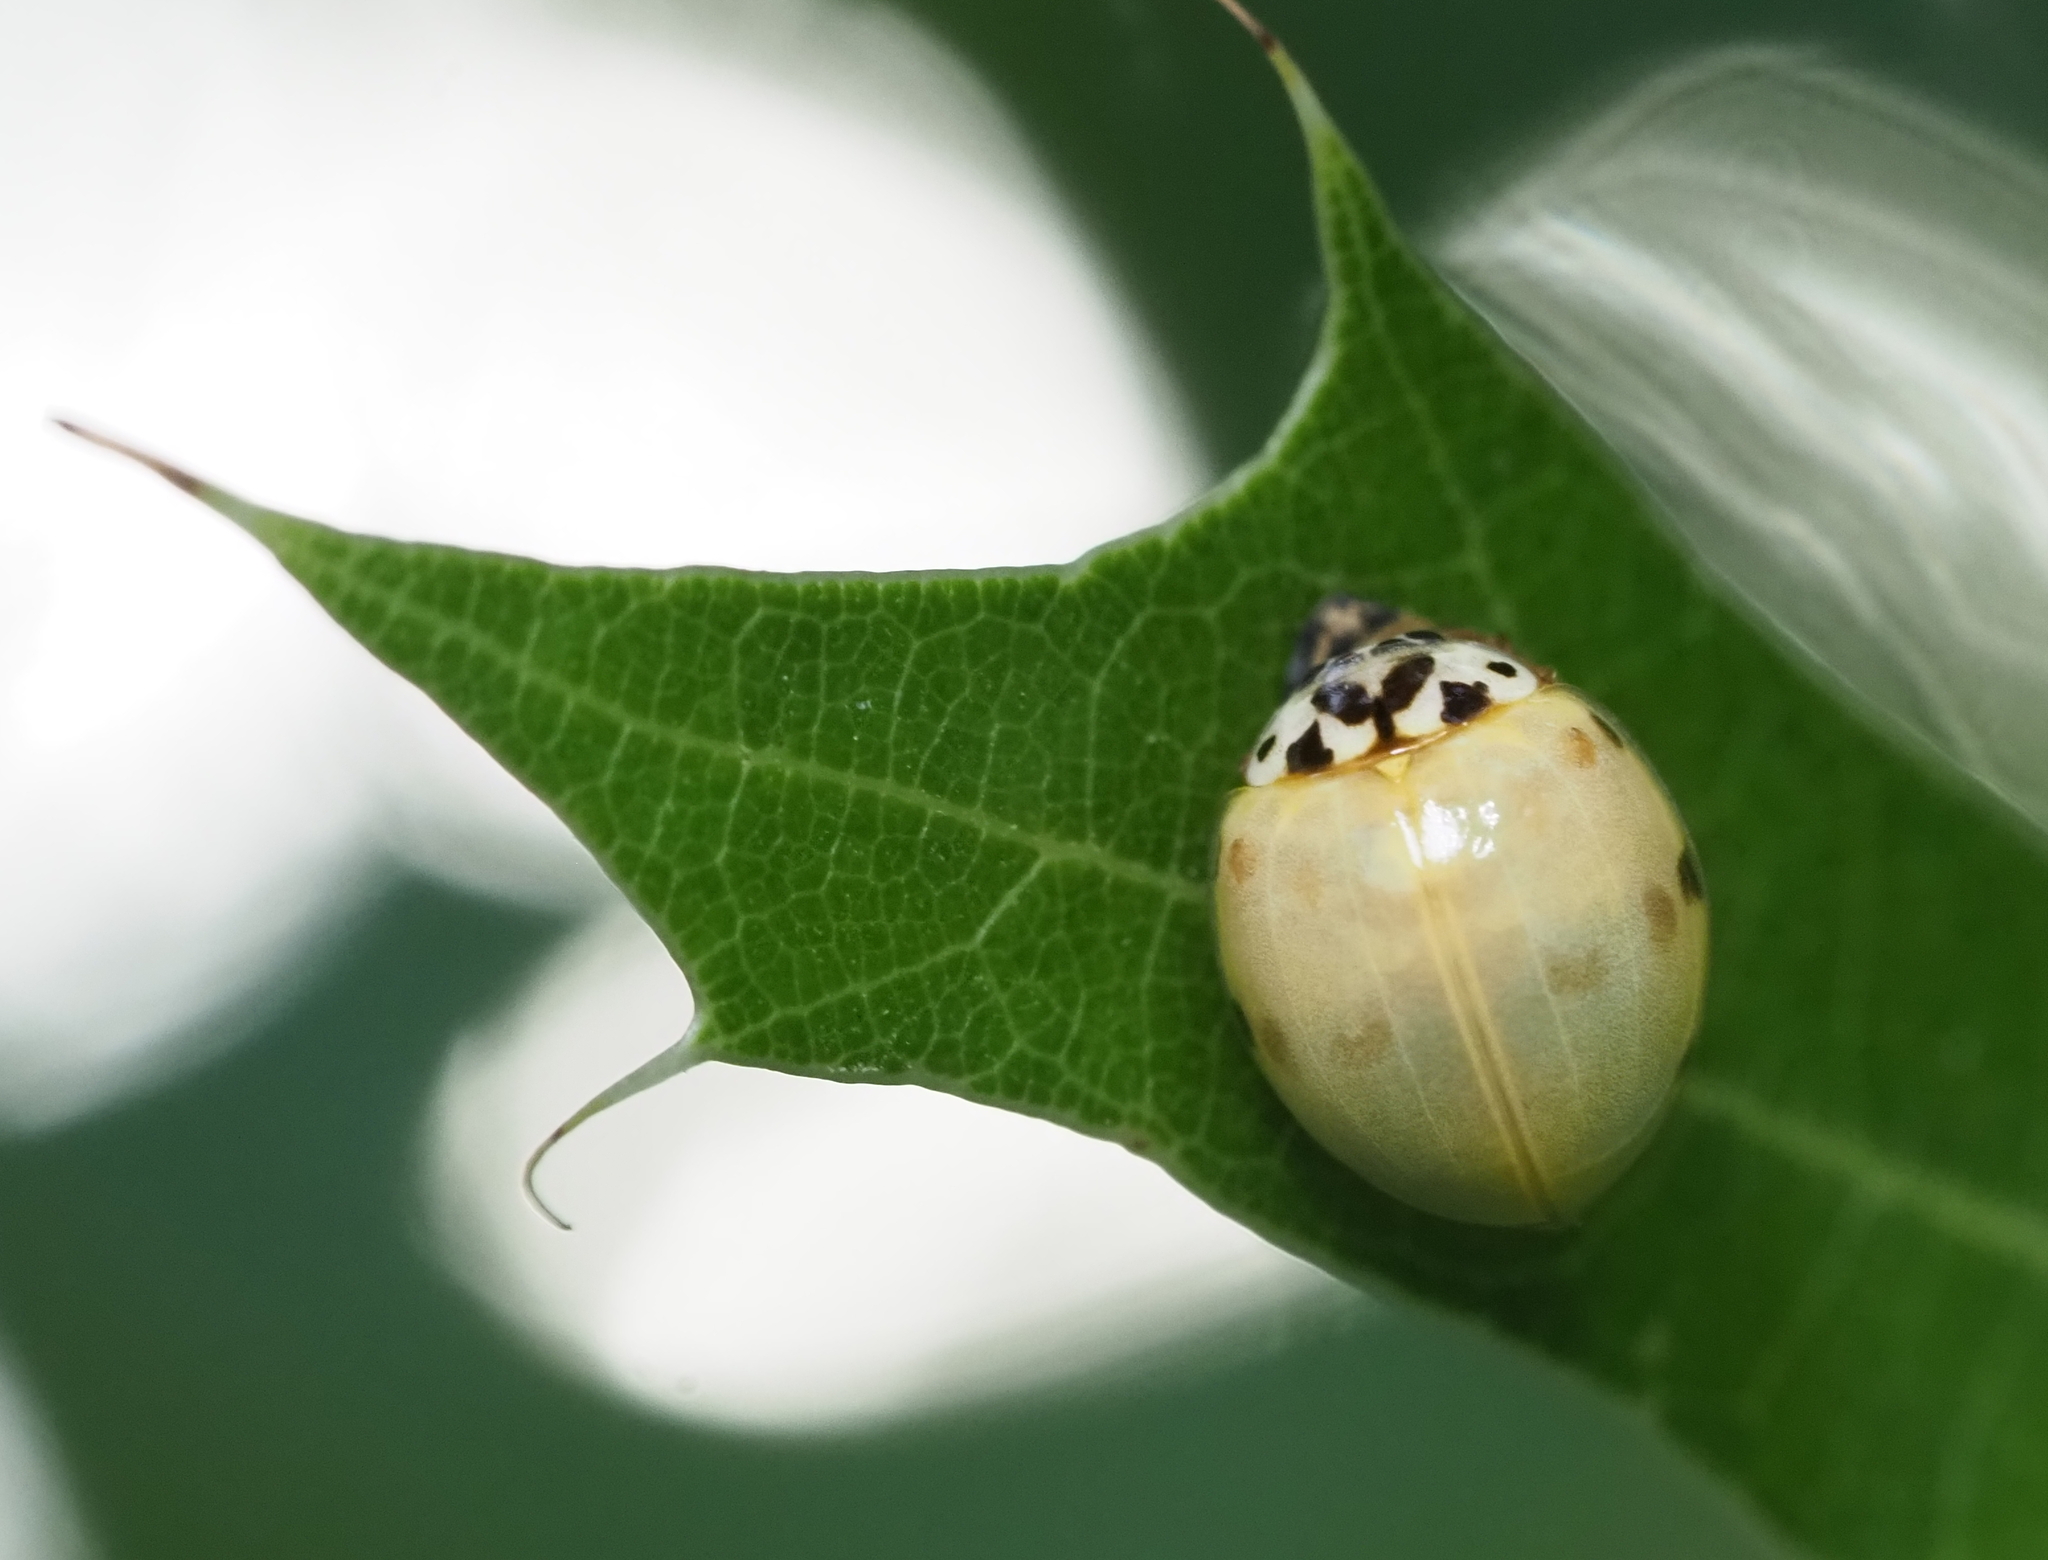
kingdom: Animalia
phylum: Arthropoda
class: Insecta
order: Coleoptera
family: Coccinellidae
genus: Olla
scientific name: Olla v-nigrum
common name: Ashy gray lady beetle
